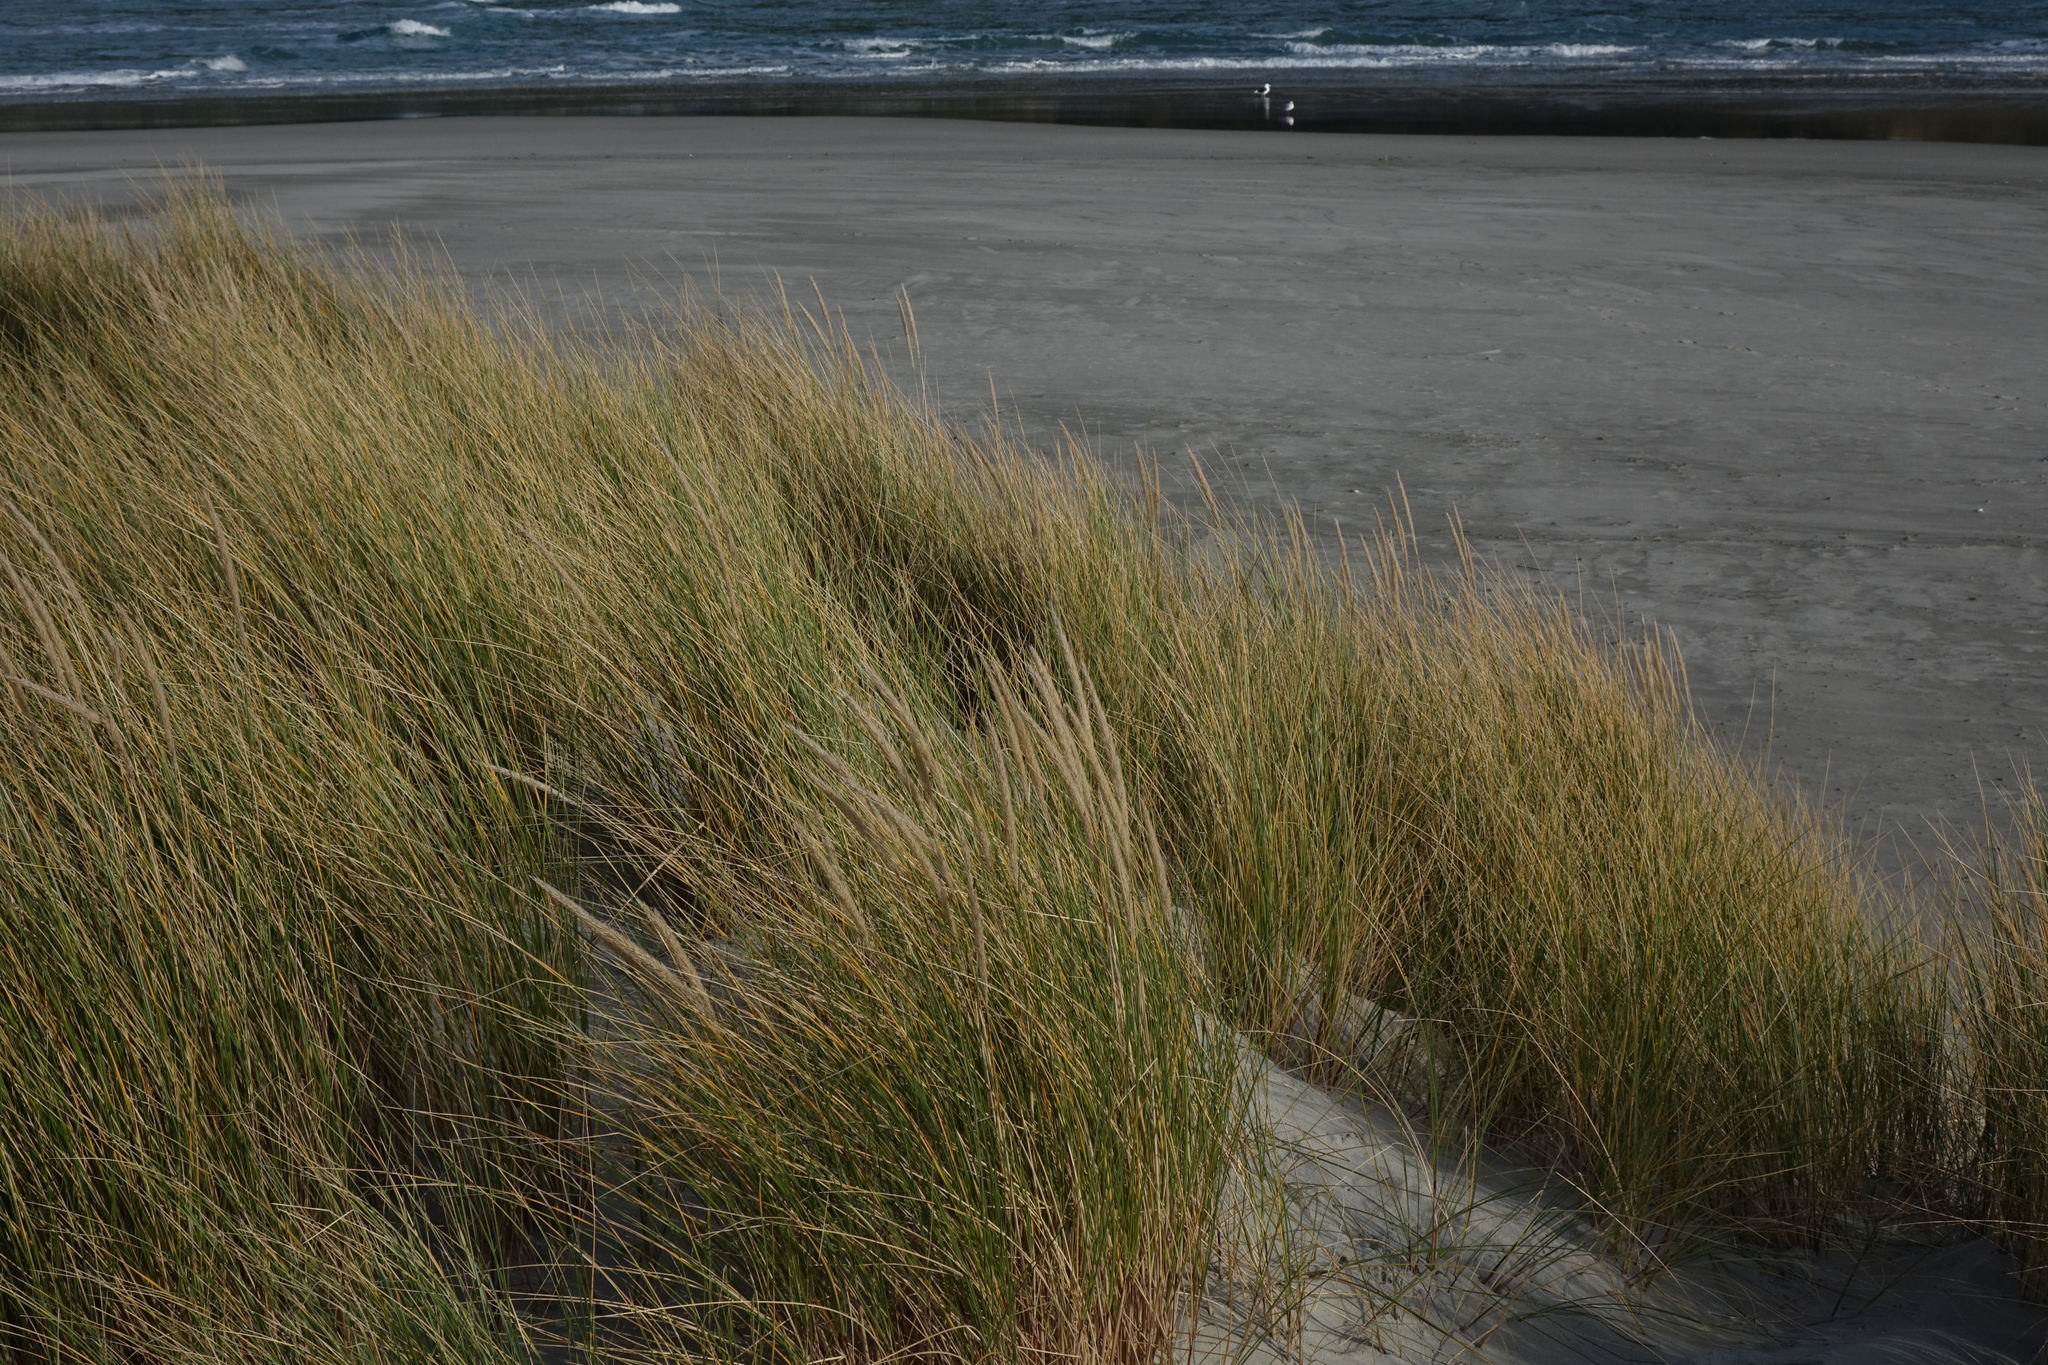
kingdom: Plantae
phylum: Tracheophyta
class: Liliopsida
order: Poales
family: Poaceae
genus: Calamagrostis
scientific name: Calamagrostis arenaria
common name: European beachgrass
